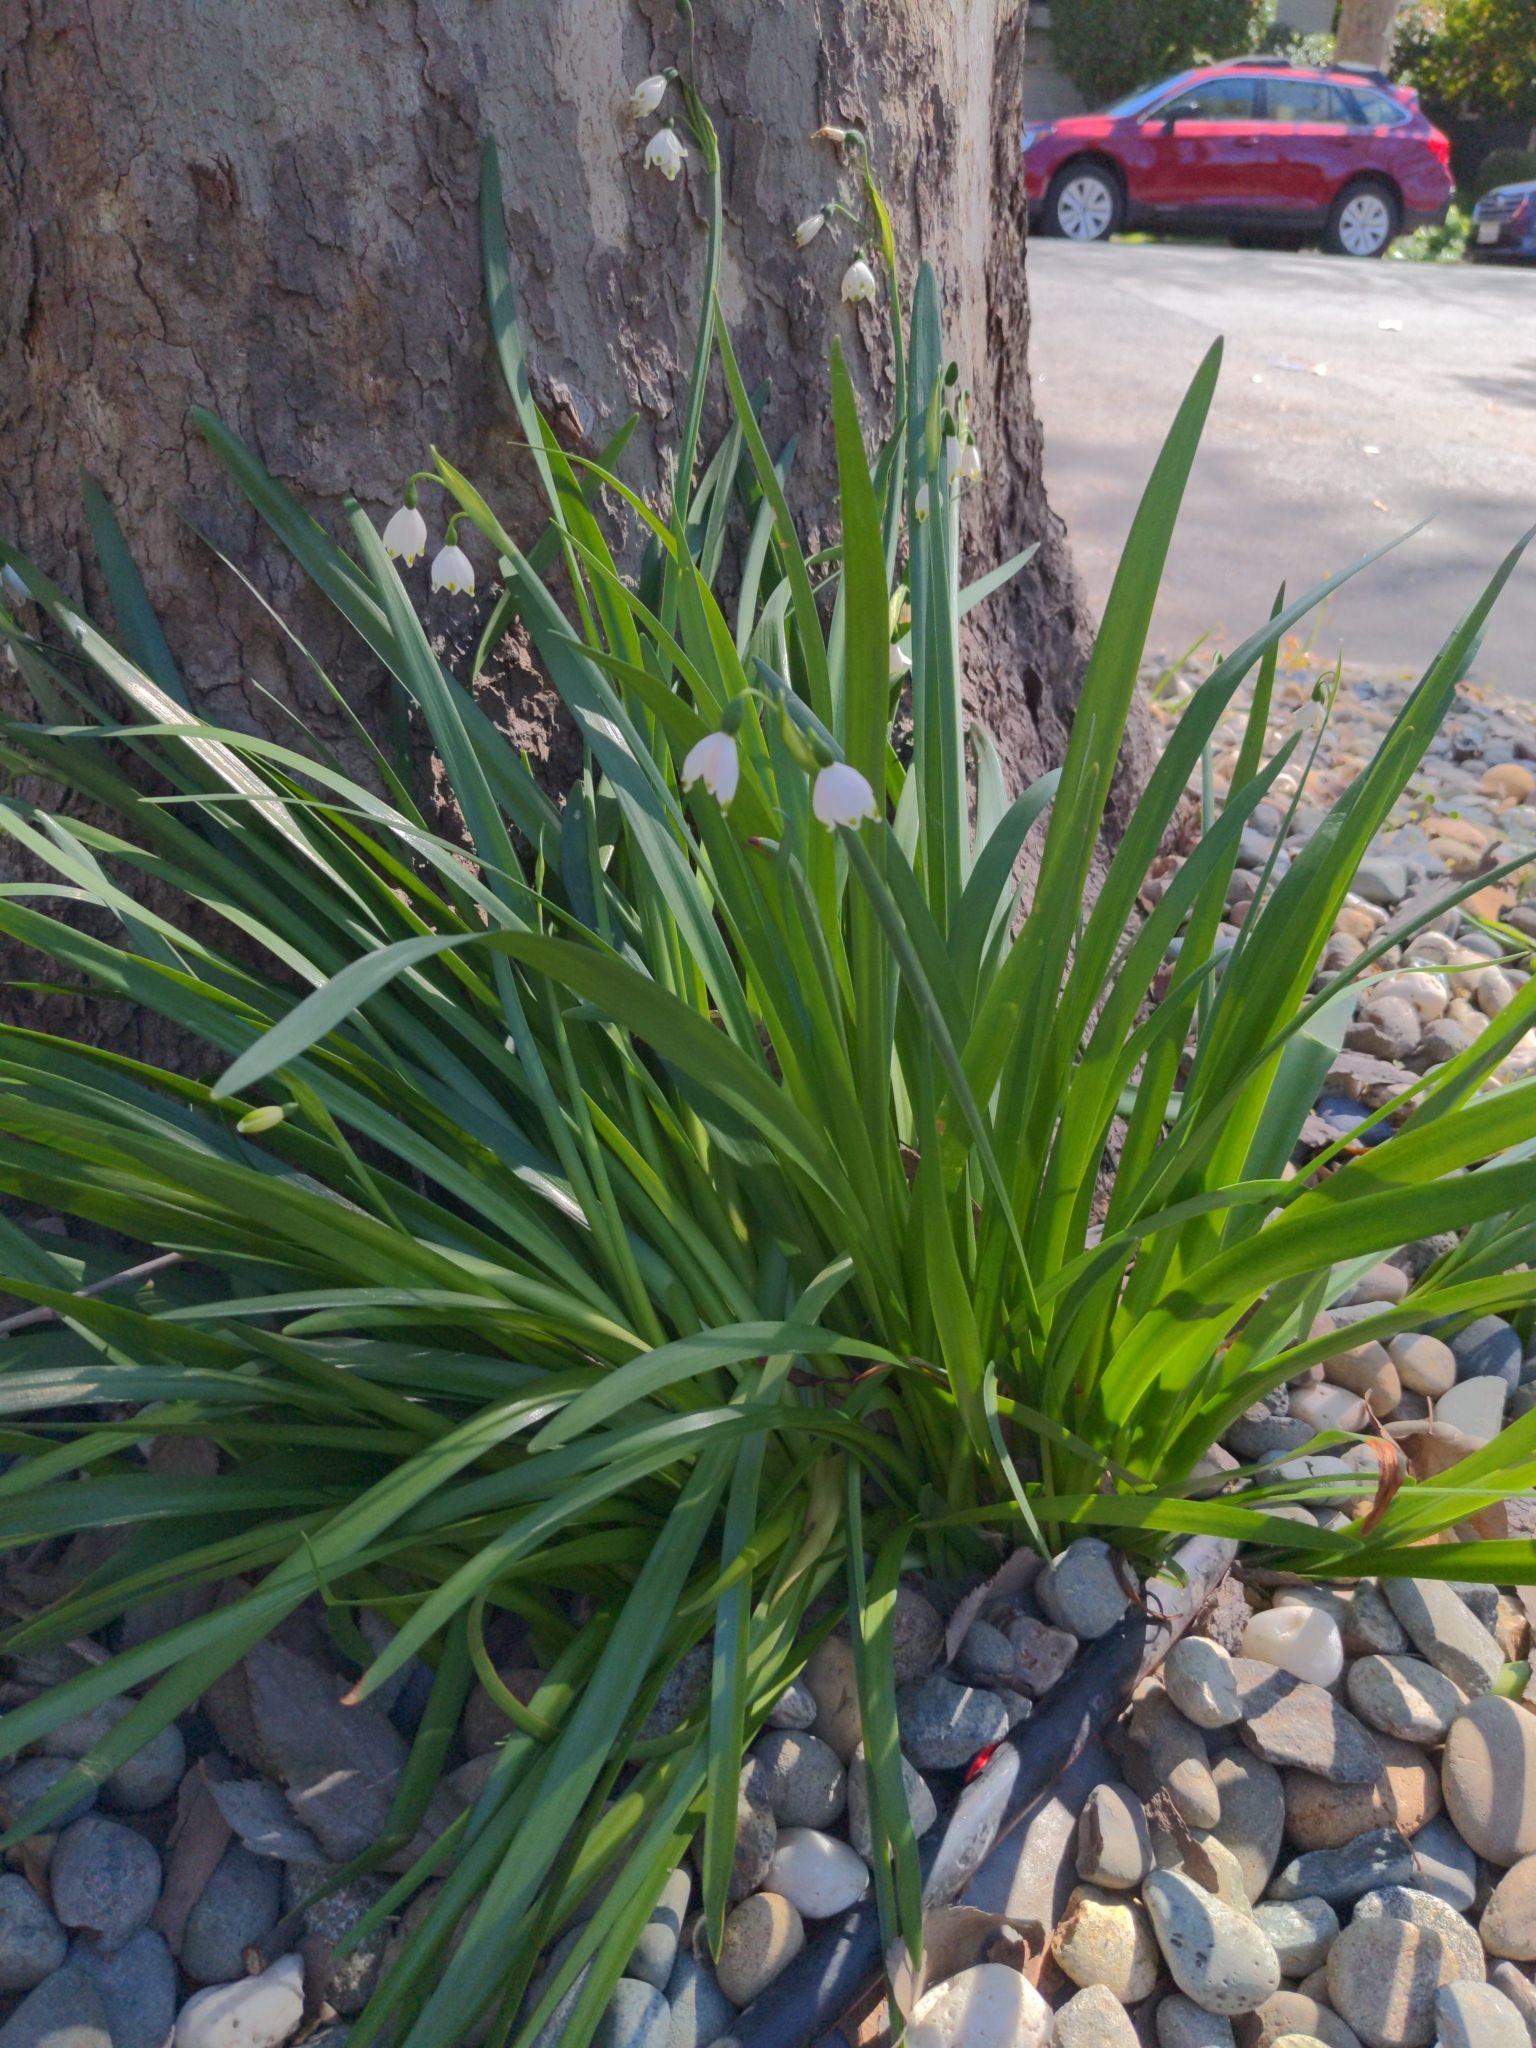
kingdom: Plantae
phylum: Tracheophyta
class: Liliopsida
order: Asparagales
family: Amaryllidaceae
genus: Leucojum
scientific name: Leucojum aestivum
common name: Summer snowflake
